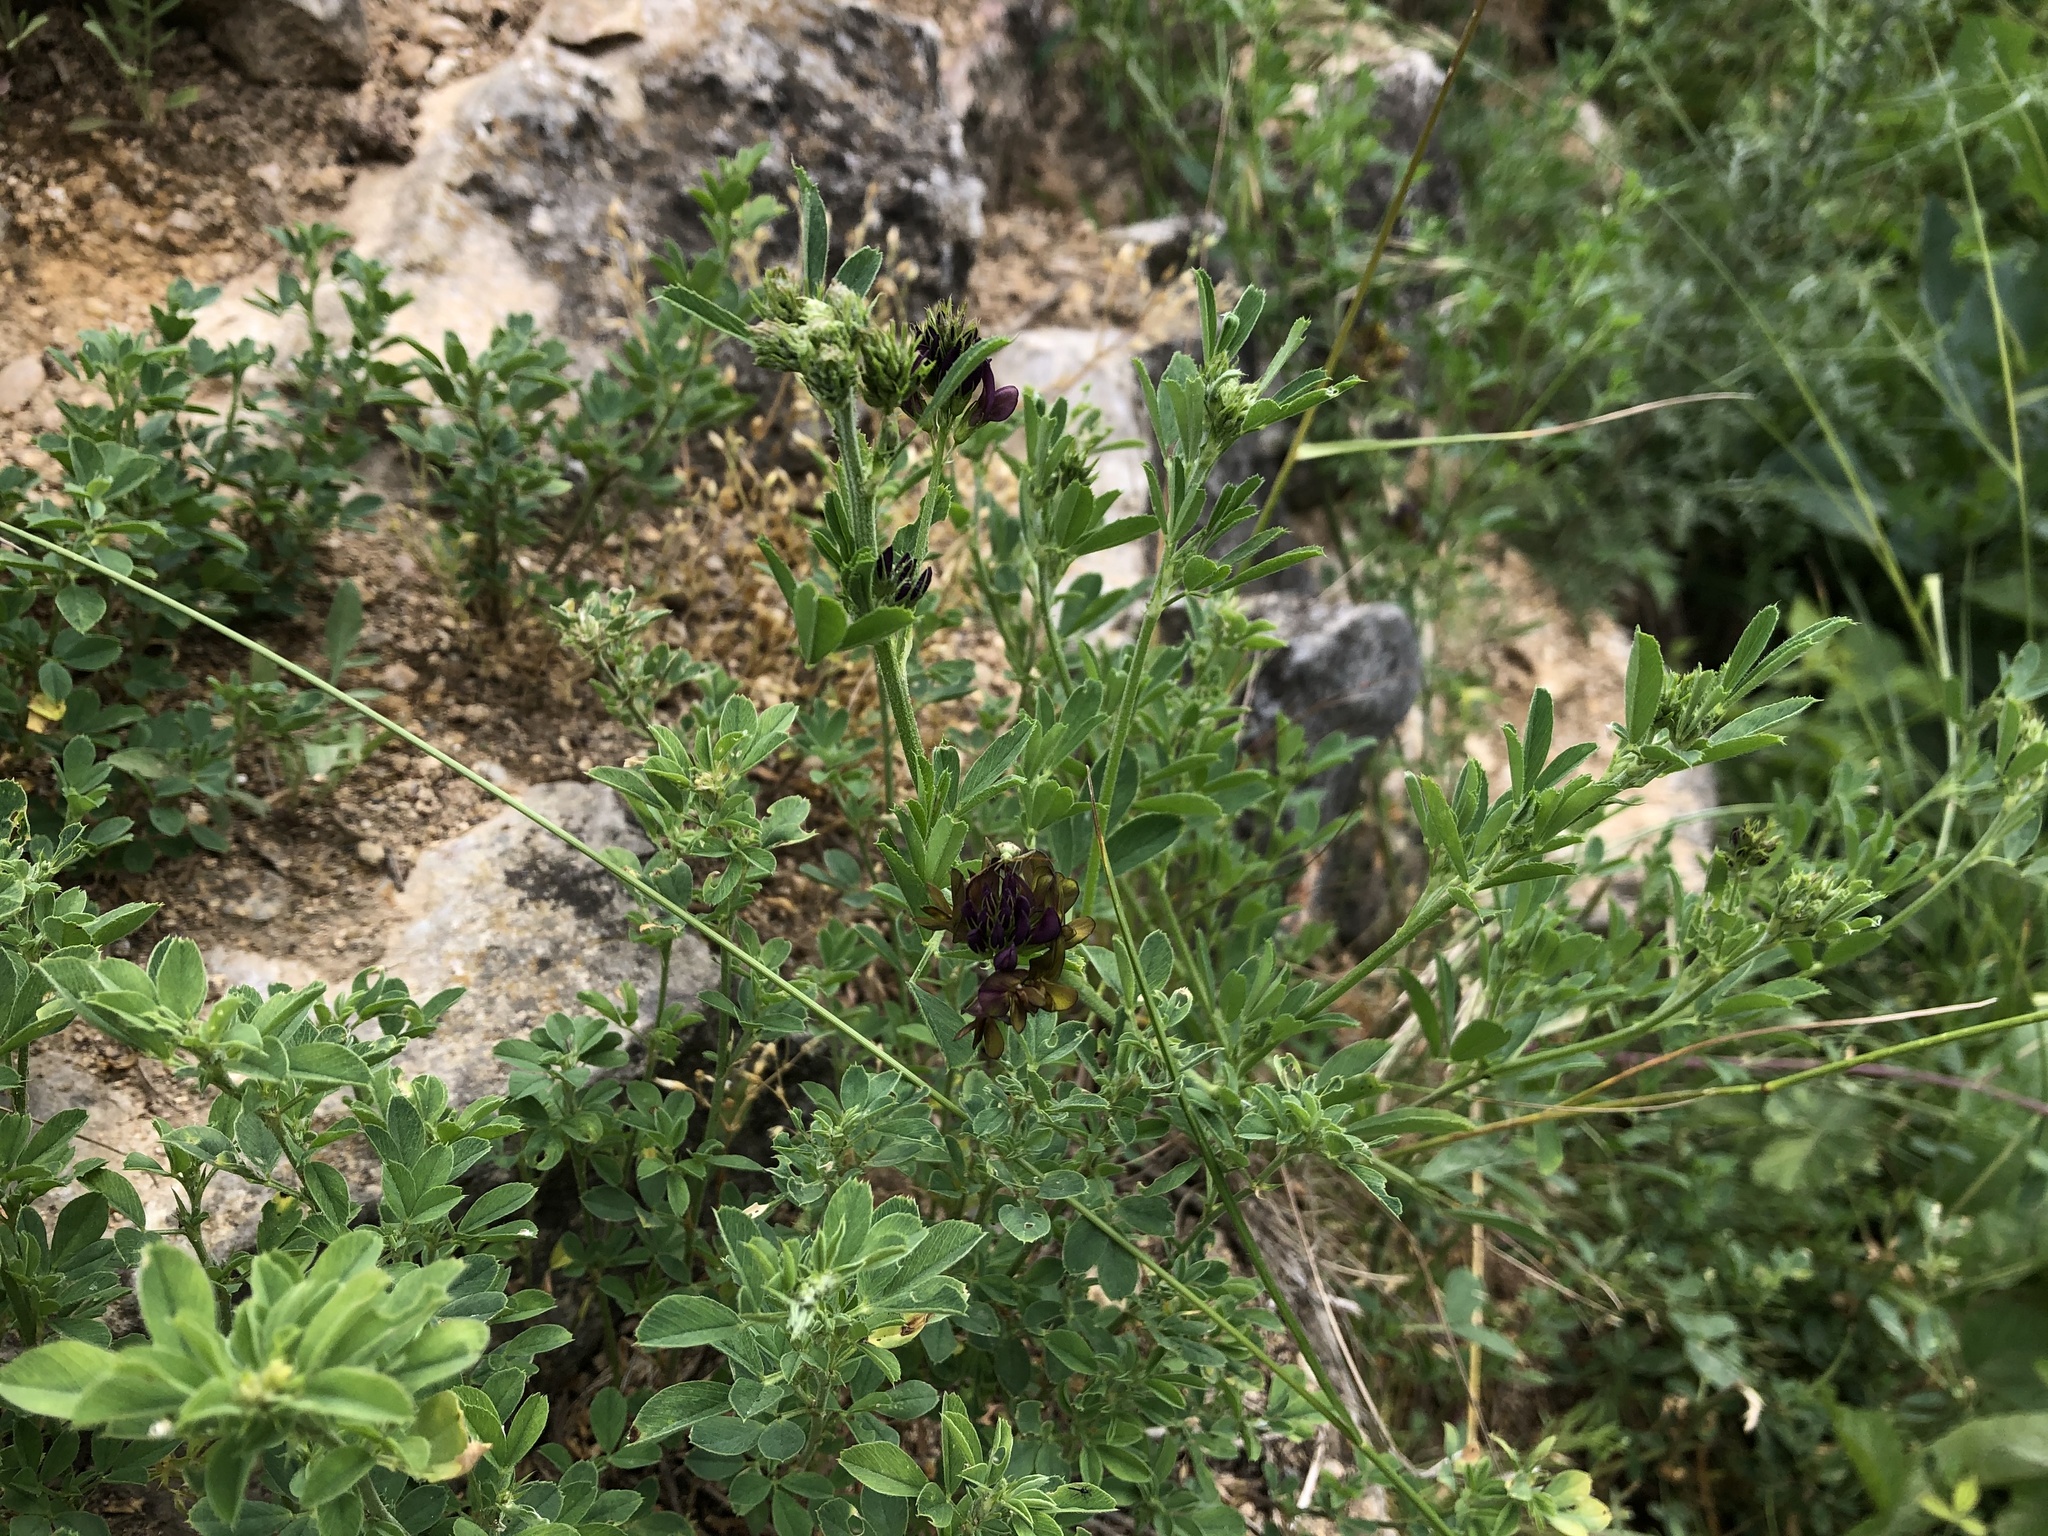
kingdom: Plantae
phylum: Tracheophyta
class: Magnoliopsida
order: Fabales
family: Fabaceae
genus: Medicago
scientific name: Medicago varia
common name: Sand lucerne
